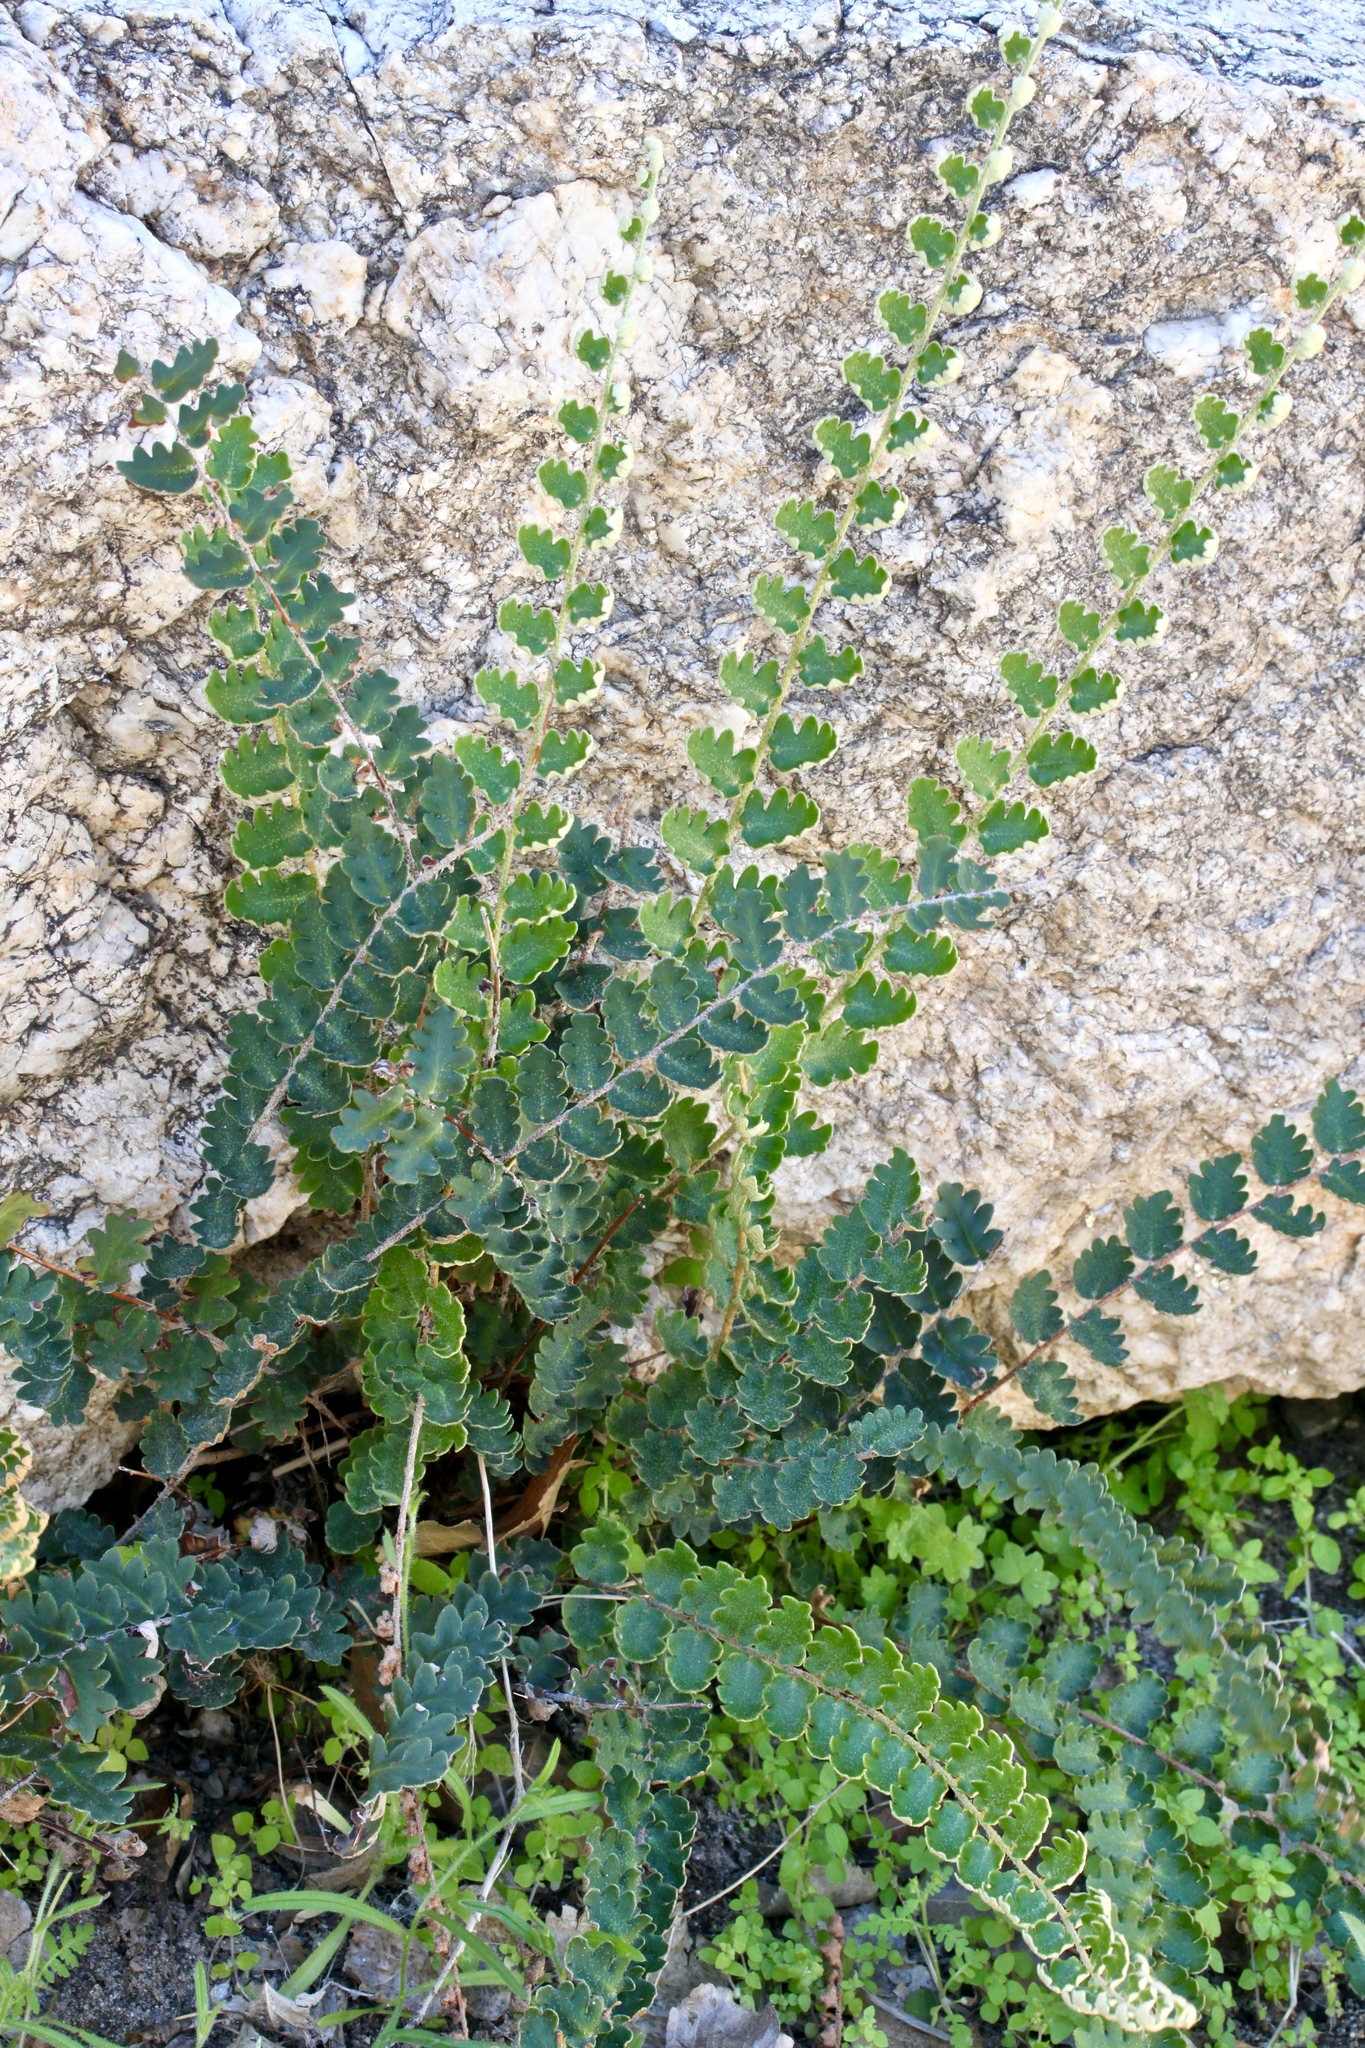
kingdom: Plantae
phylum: Tracheophyta
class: Polypodiopsida
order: Polypodiales
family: Pteridaceae
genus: Astrolepis
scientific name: Astrolepis sinuata
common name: Wavy scaly cloakfern
